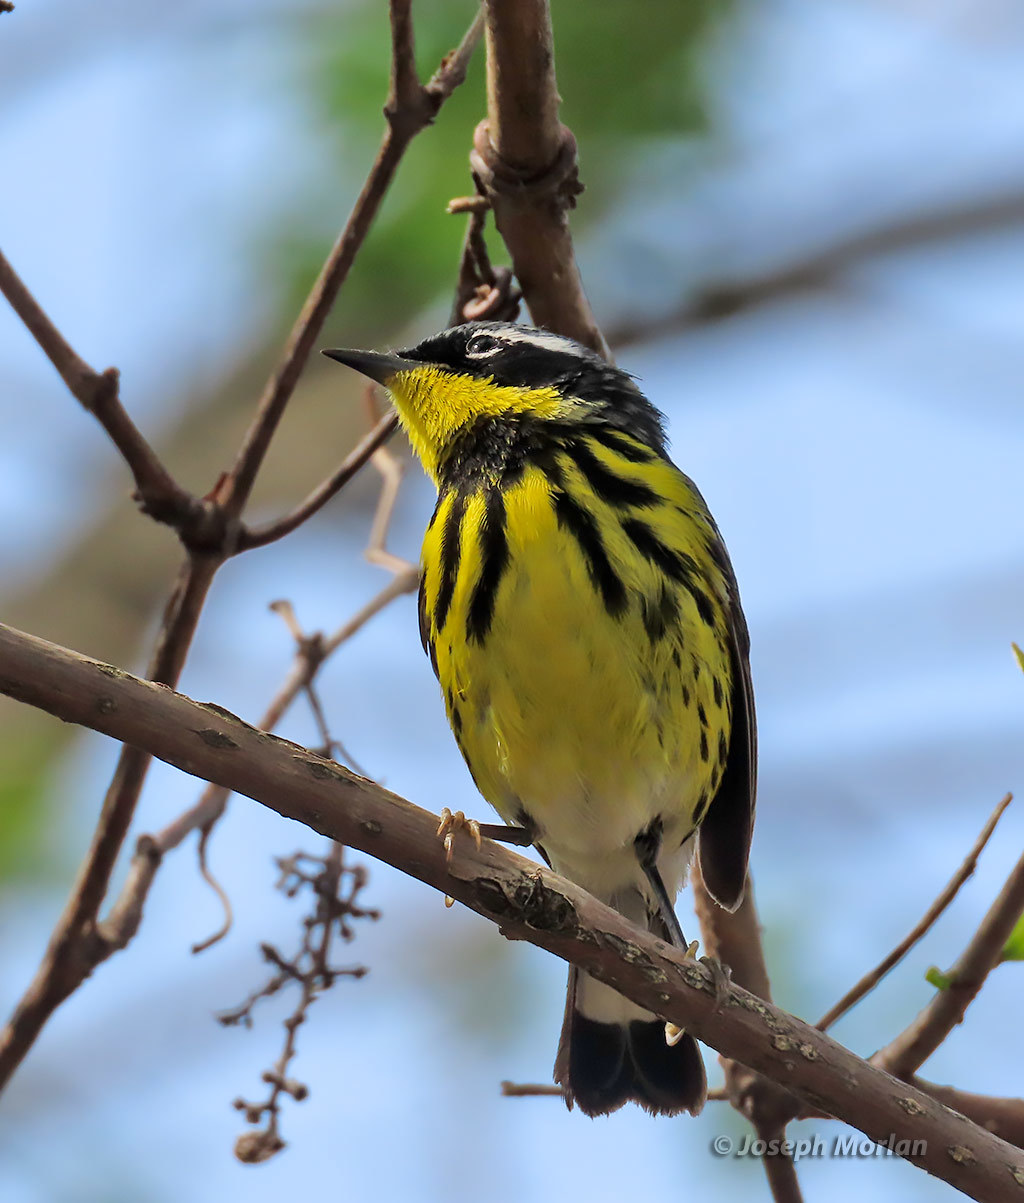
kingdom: Animalia
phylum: Chordata
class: Aves
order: Passeriformes
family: Parulidae
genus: Setophaga
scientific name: Setophaga magnolia
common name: Magnolia warbler
